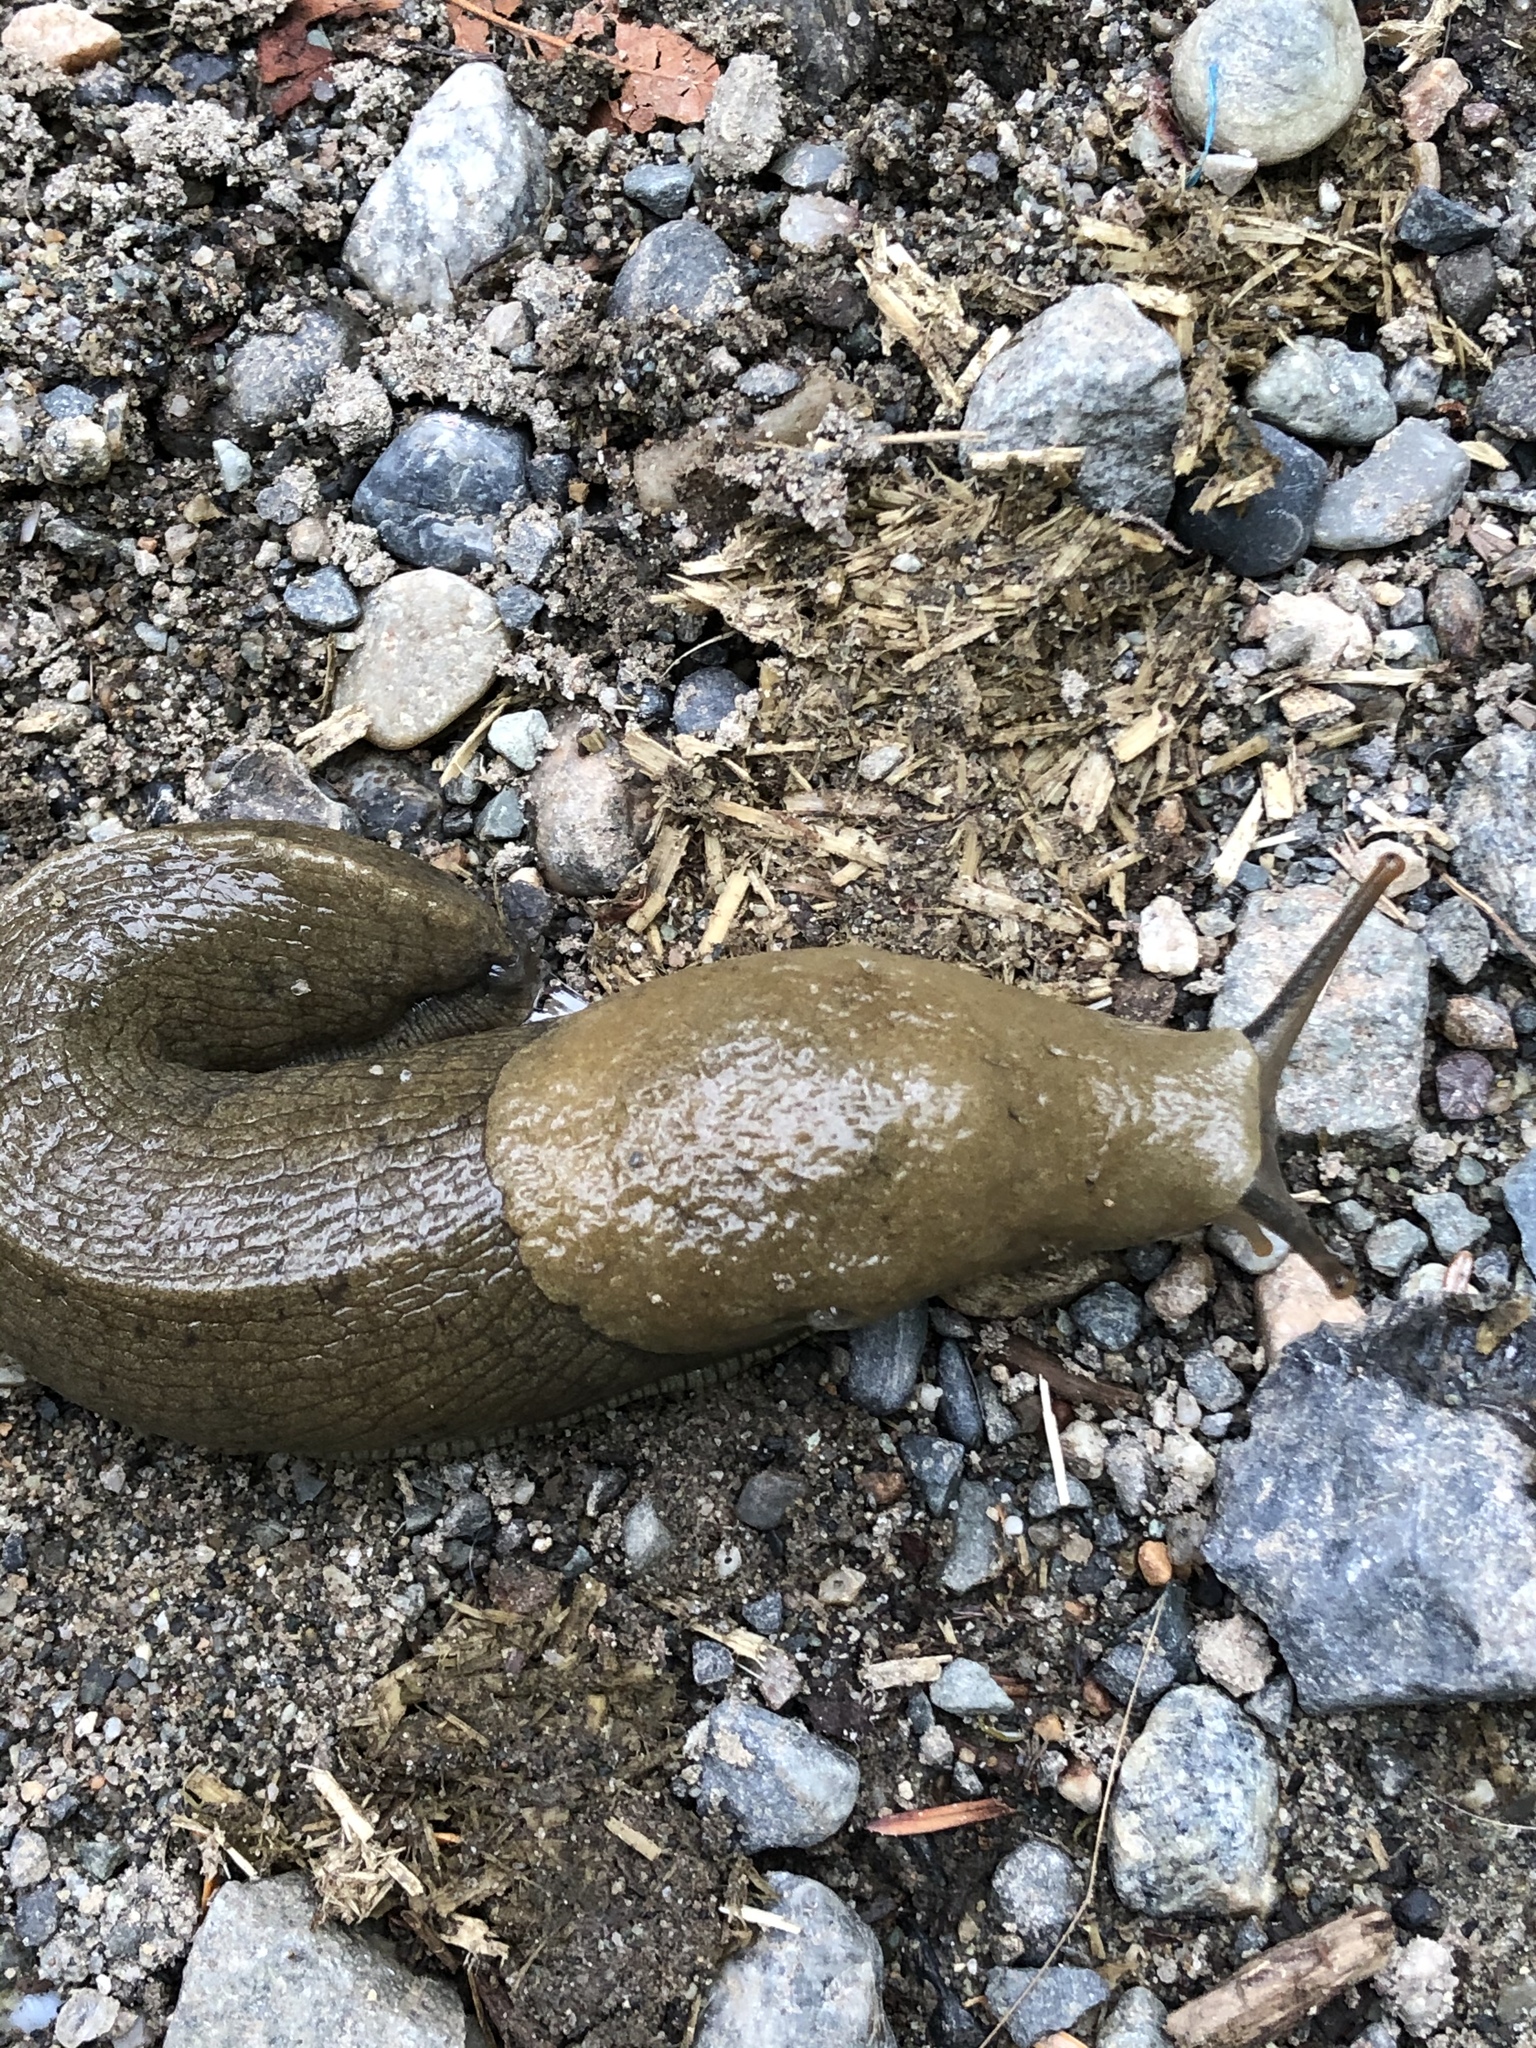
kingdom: Animalia
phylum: Mollusca
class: Gastropoda
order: Stylommatophora
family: Ariolimacidae
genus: Ariolimax
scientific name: Ariolimax columbianus
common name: Pacific banana slug
